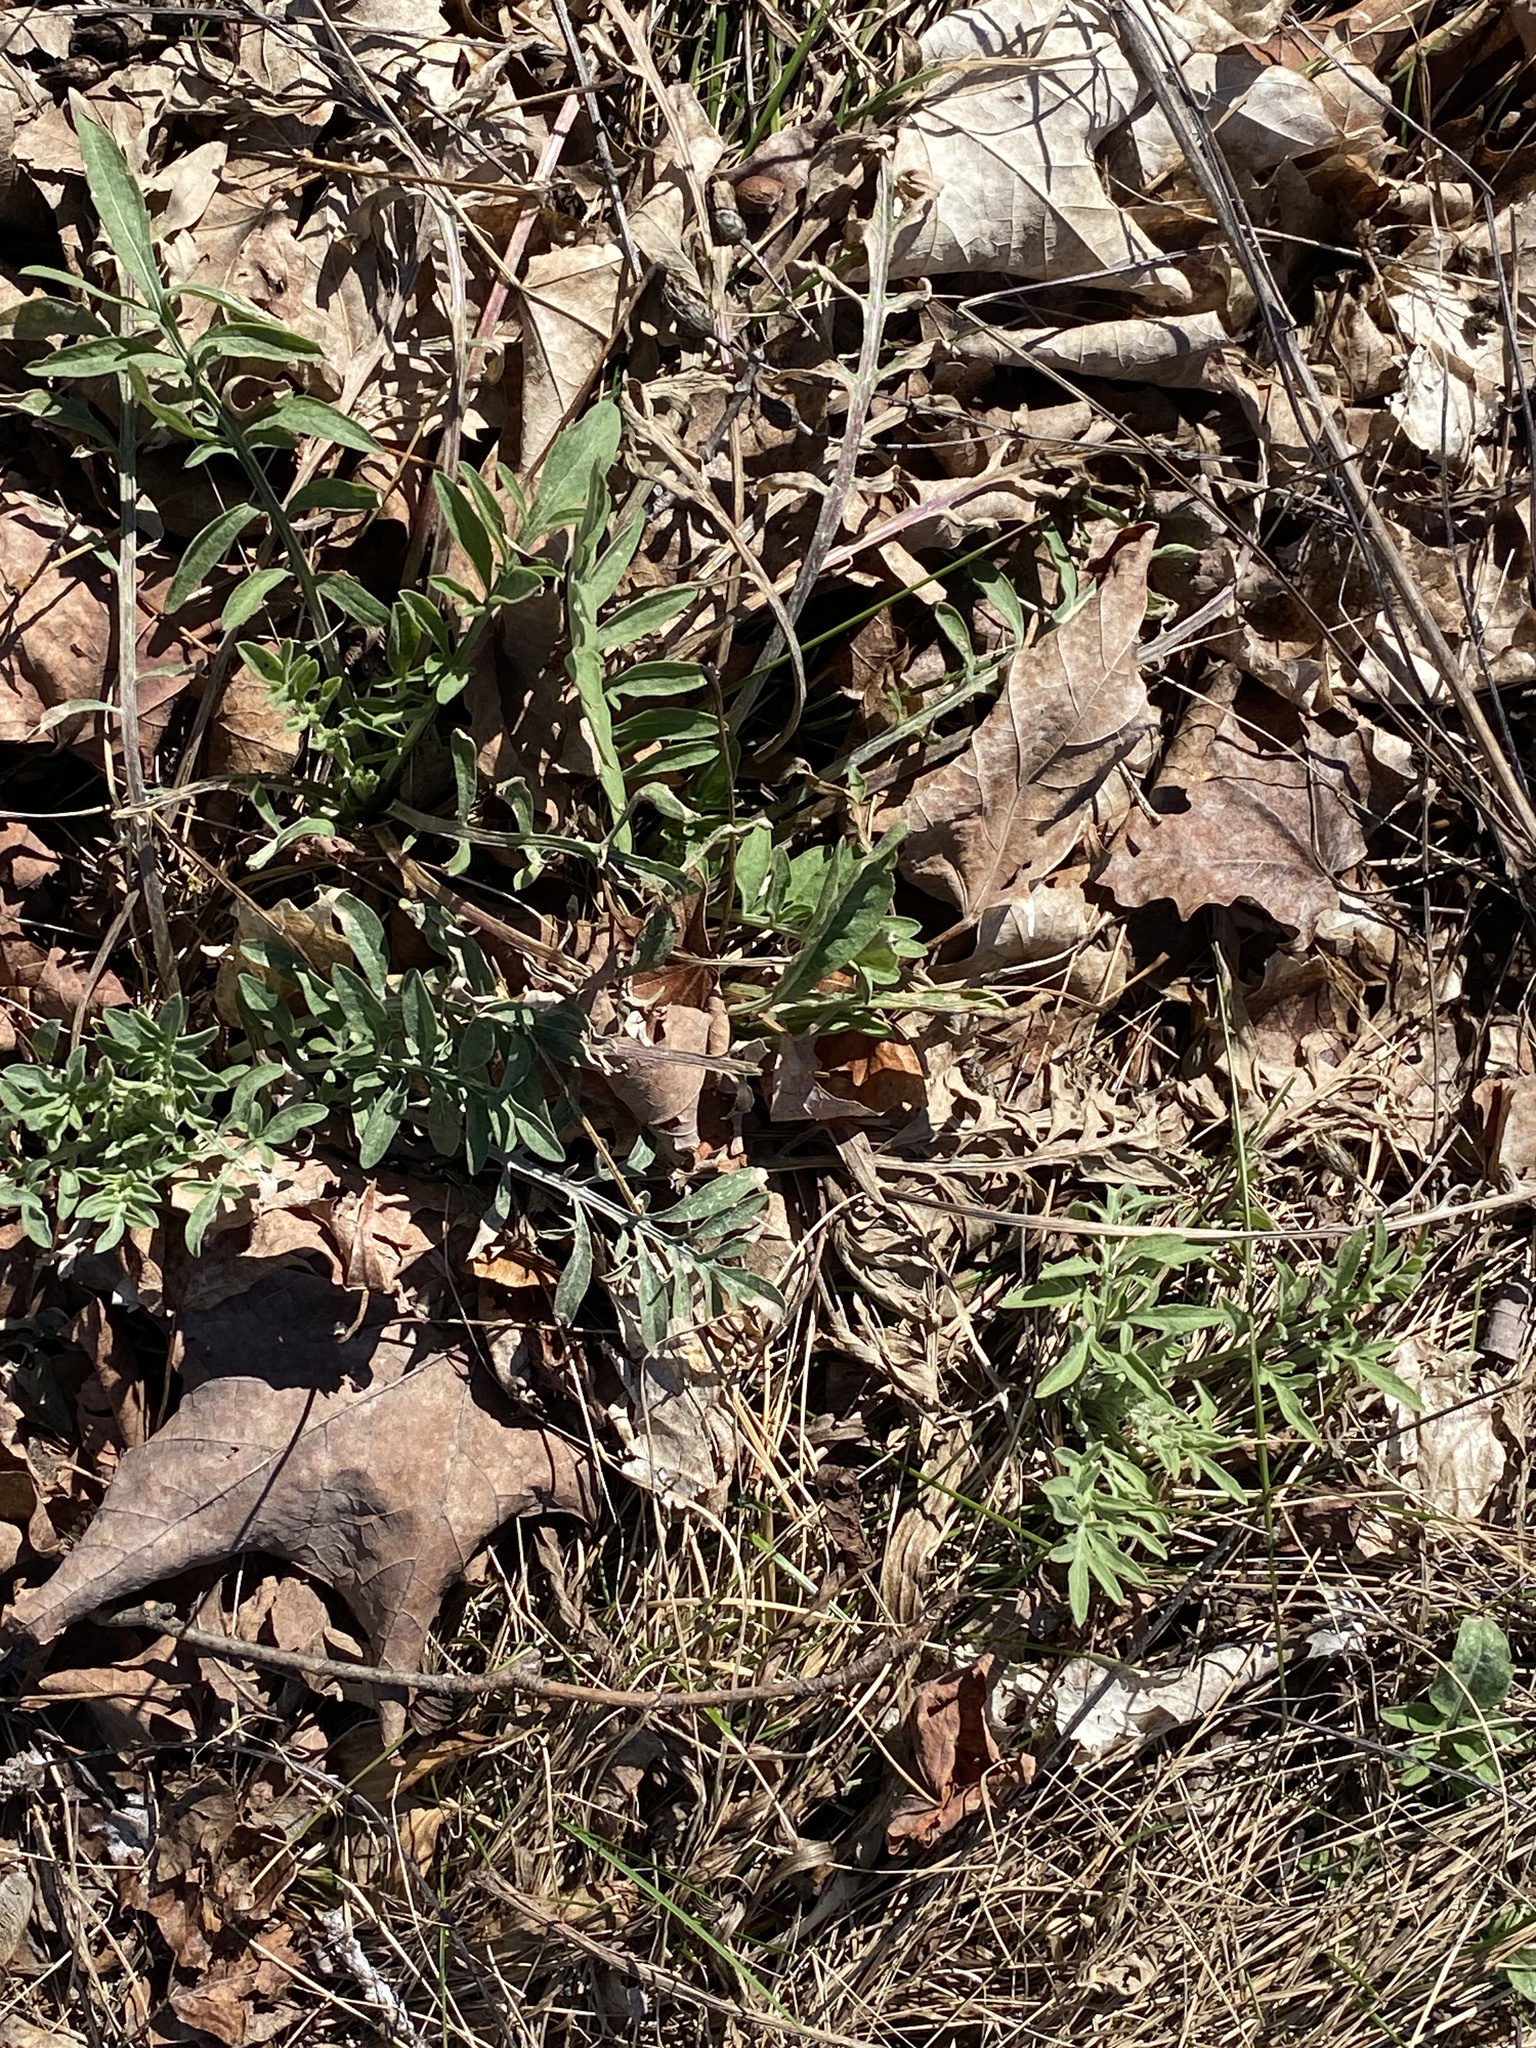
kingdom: Plantae
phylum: Tracheophyta
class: Magnoliopsida
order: Asterales
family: Asteraceae
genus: Centaurea
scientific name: Centaurea stoebe
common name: Spotted knapweed
